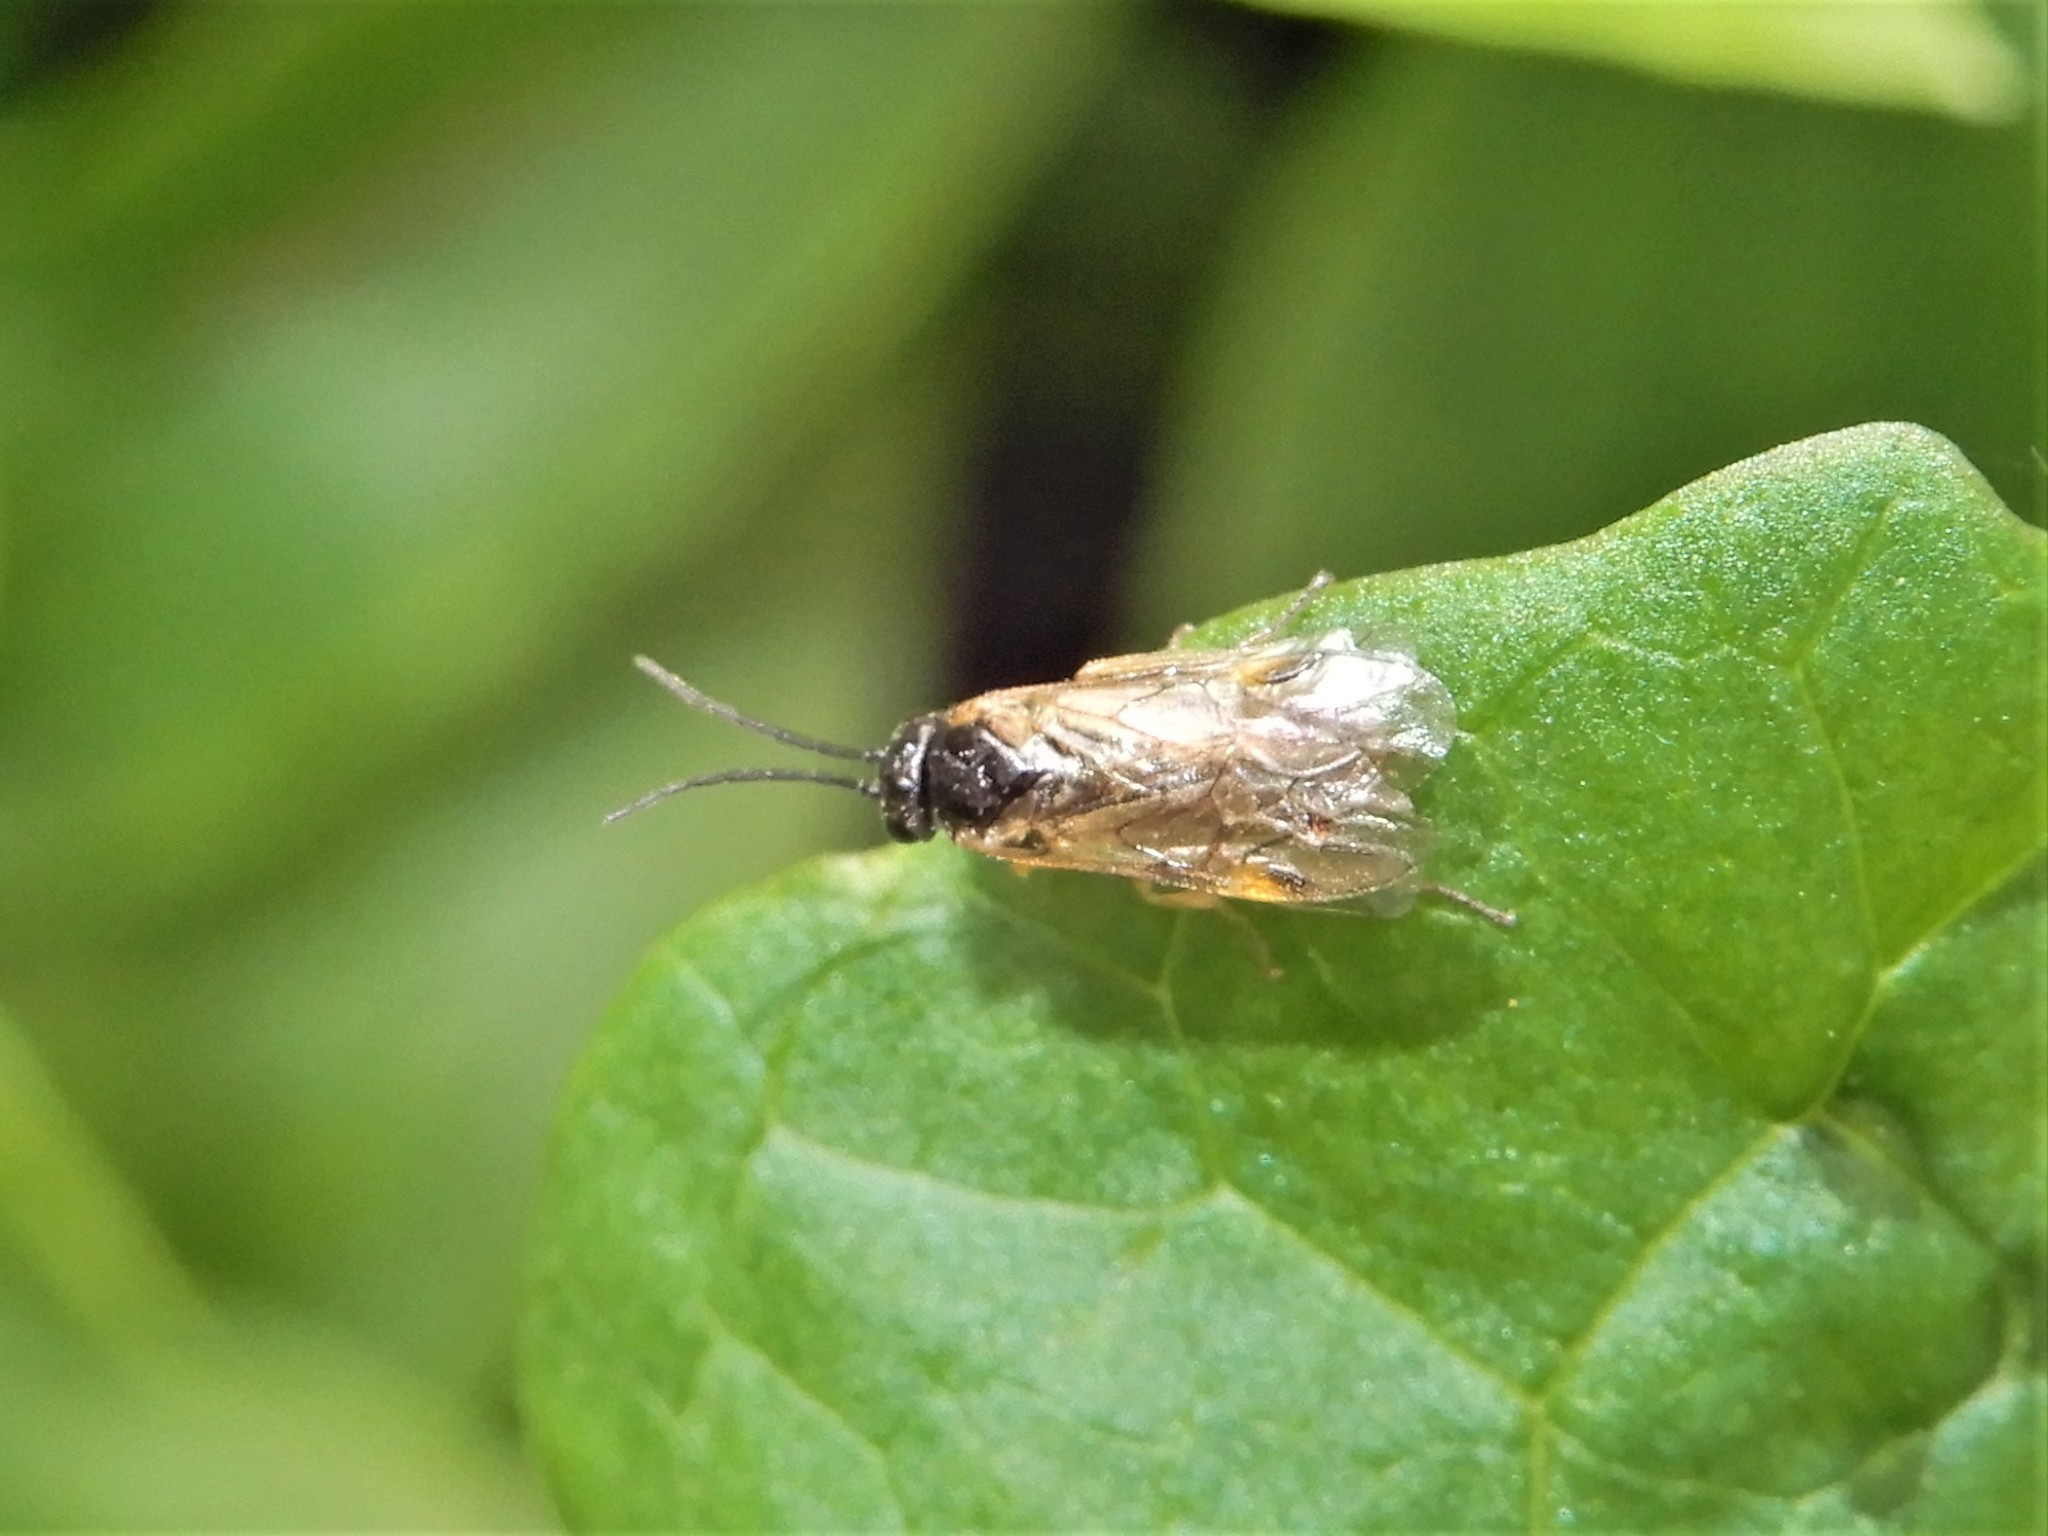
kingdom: Animalia
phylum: Arthropoda
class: Insecta
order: Hymenoptera
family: Tenthredinidae
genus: Pontania
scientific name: Pontania proxima
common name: Common sawfly
